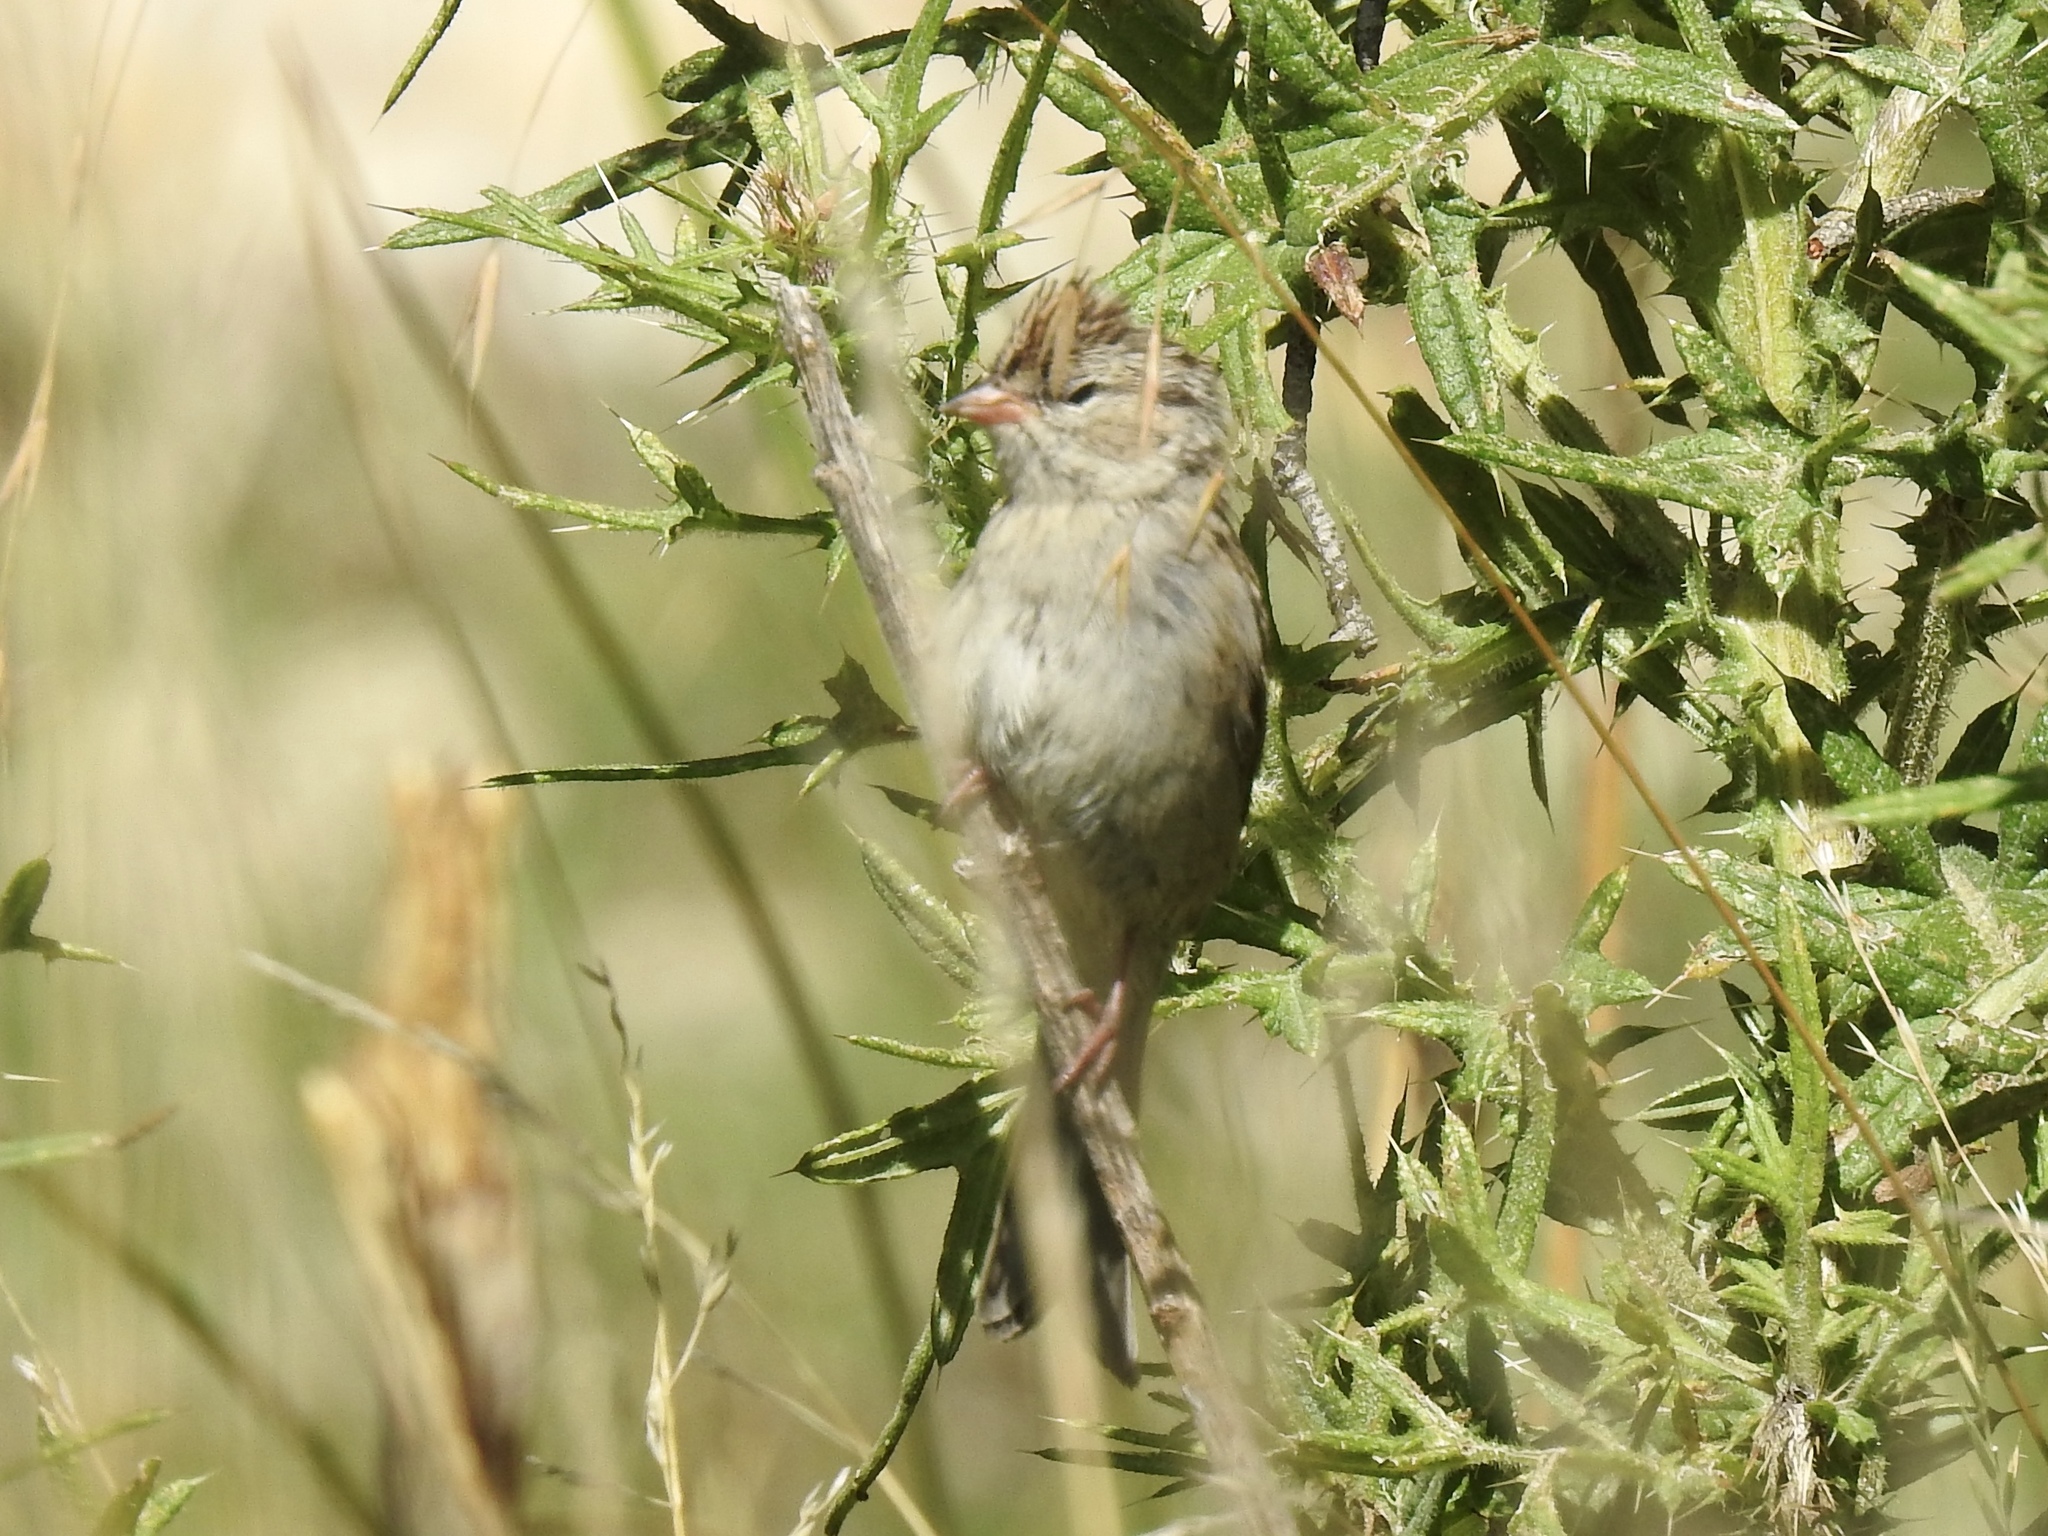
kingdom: Animalia
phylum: Chordata
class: Aves
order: Passeriformes
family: Passerellidae
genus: Spizella
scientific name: Spizella passerina
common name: Chipping sparrow
